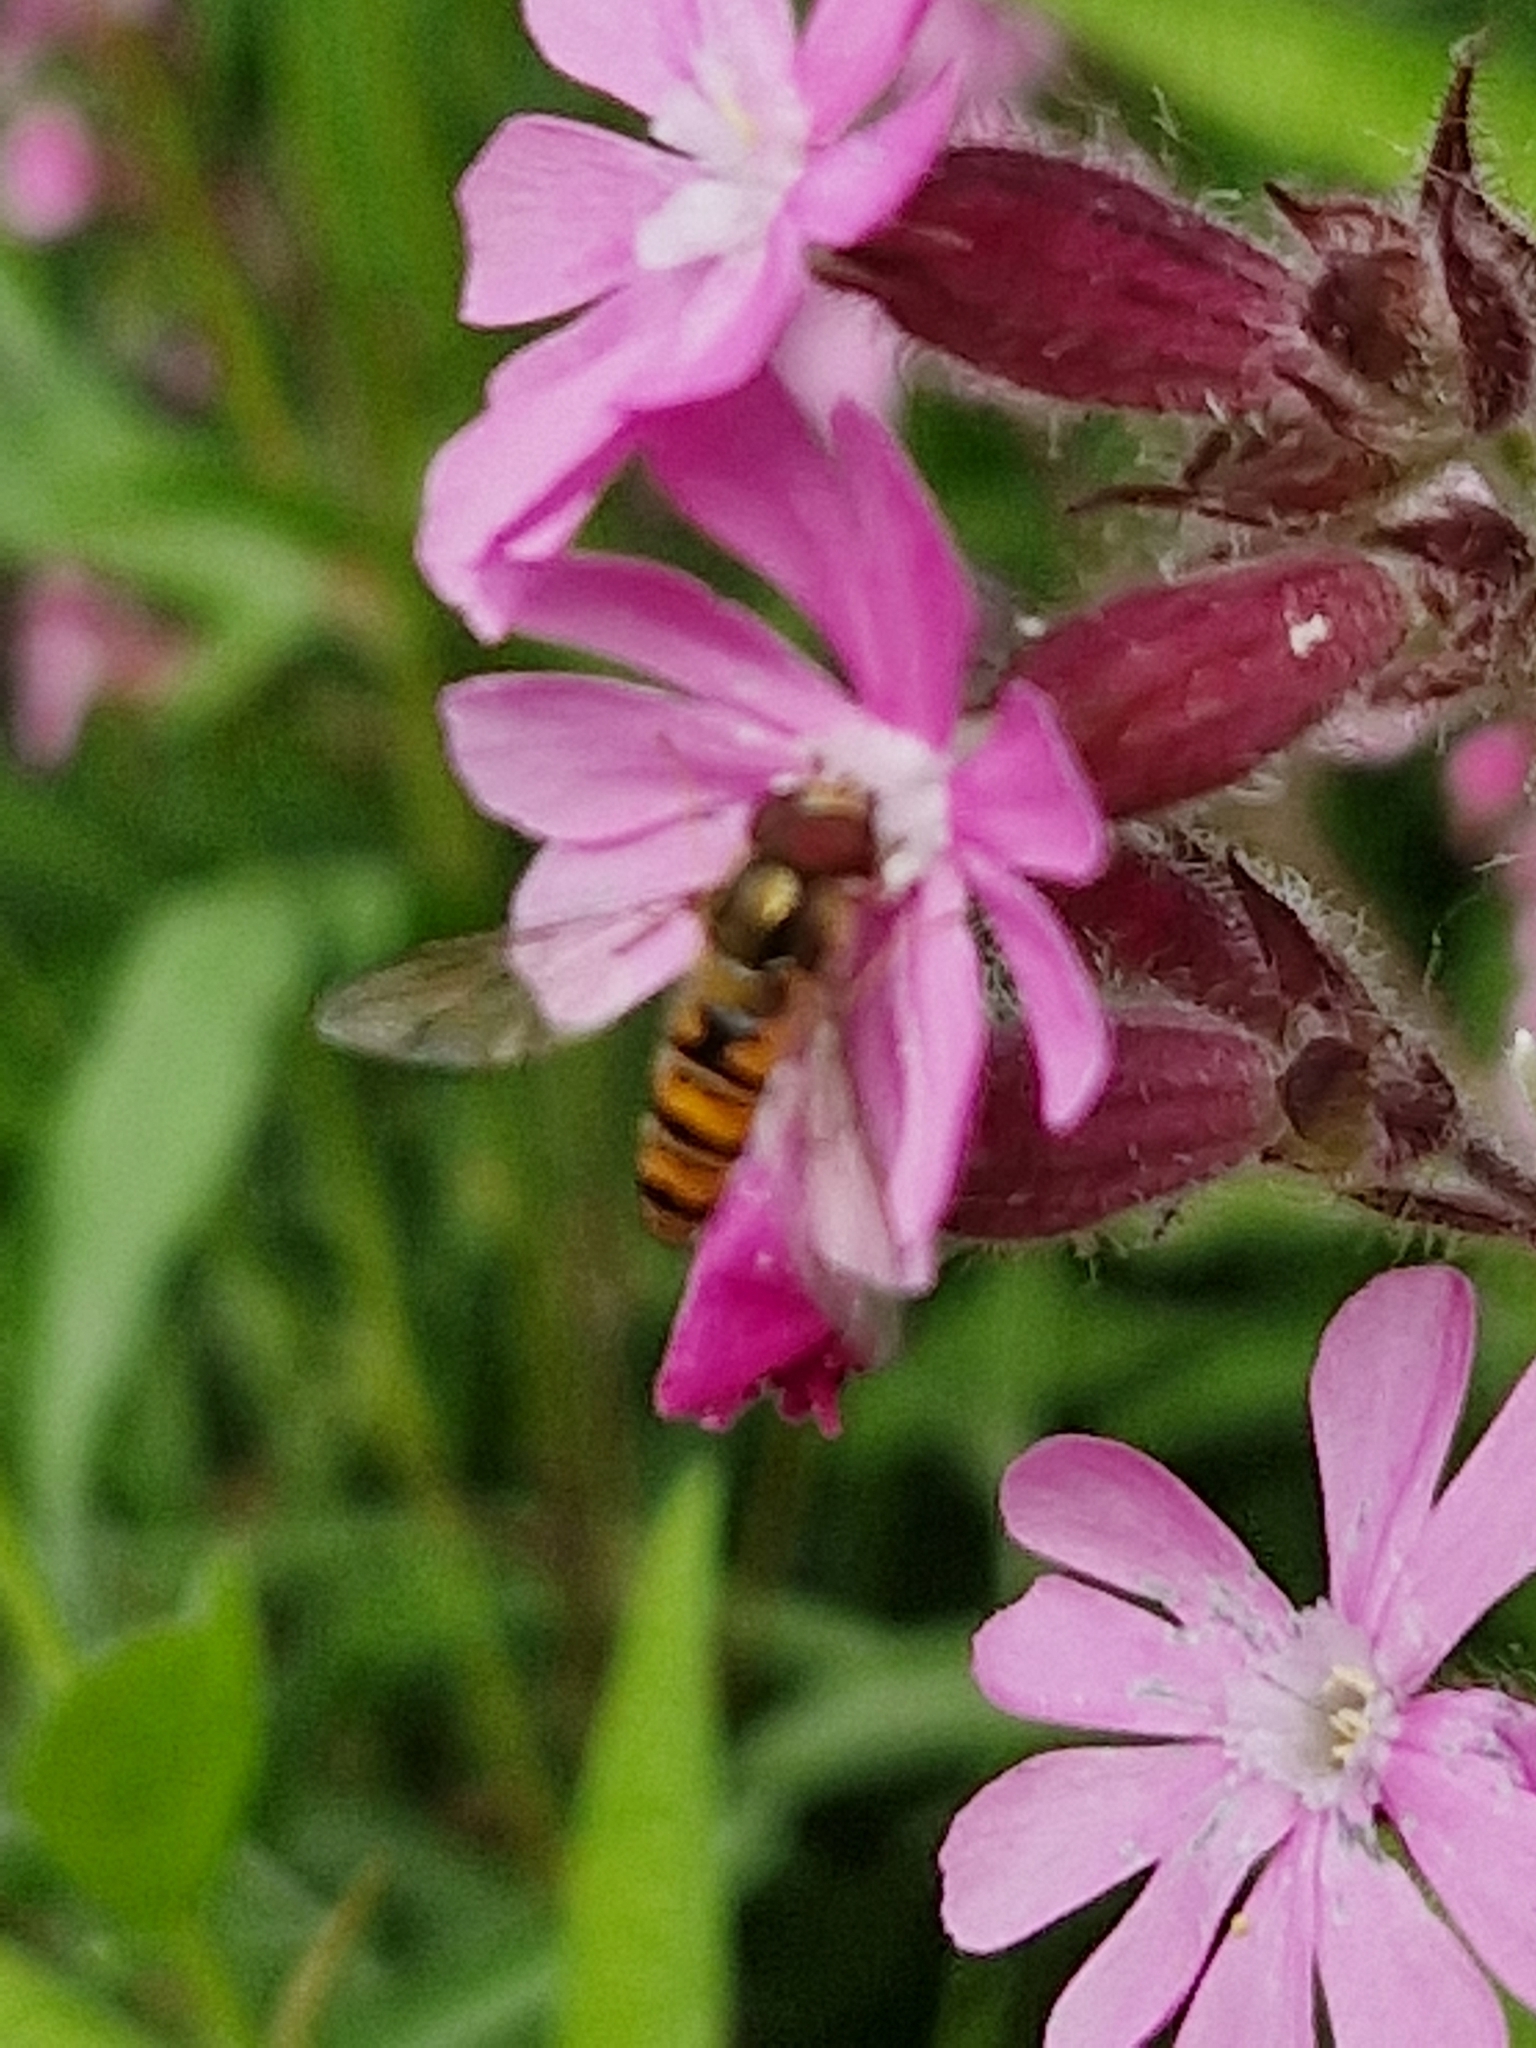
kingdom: Animalia
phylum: Arthropoda
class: Insecta
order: Diptera
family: Syrphidae
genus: Episyrphus
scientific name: Episyrphus balteatus
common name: Marmalade hoverfly
